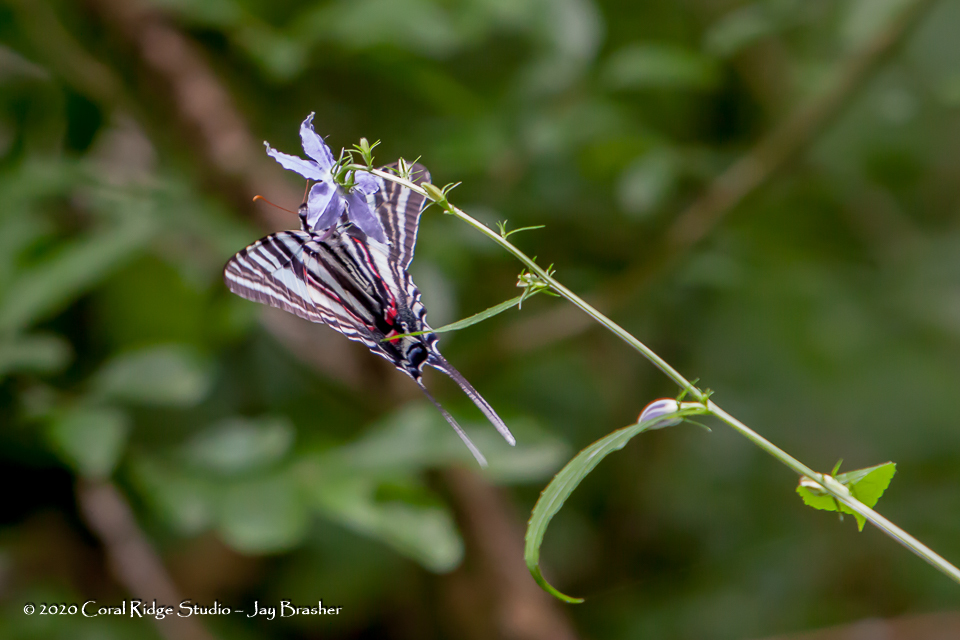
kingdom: Animalia
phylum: Arthropoda
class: Insecta
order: Lepidoptera
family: Papilionidae
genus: Protographium
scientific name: Protographium marcellus
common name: Zebra swallowtail
